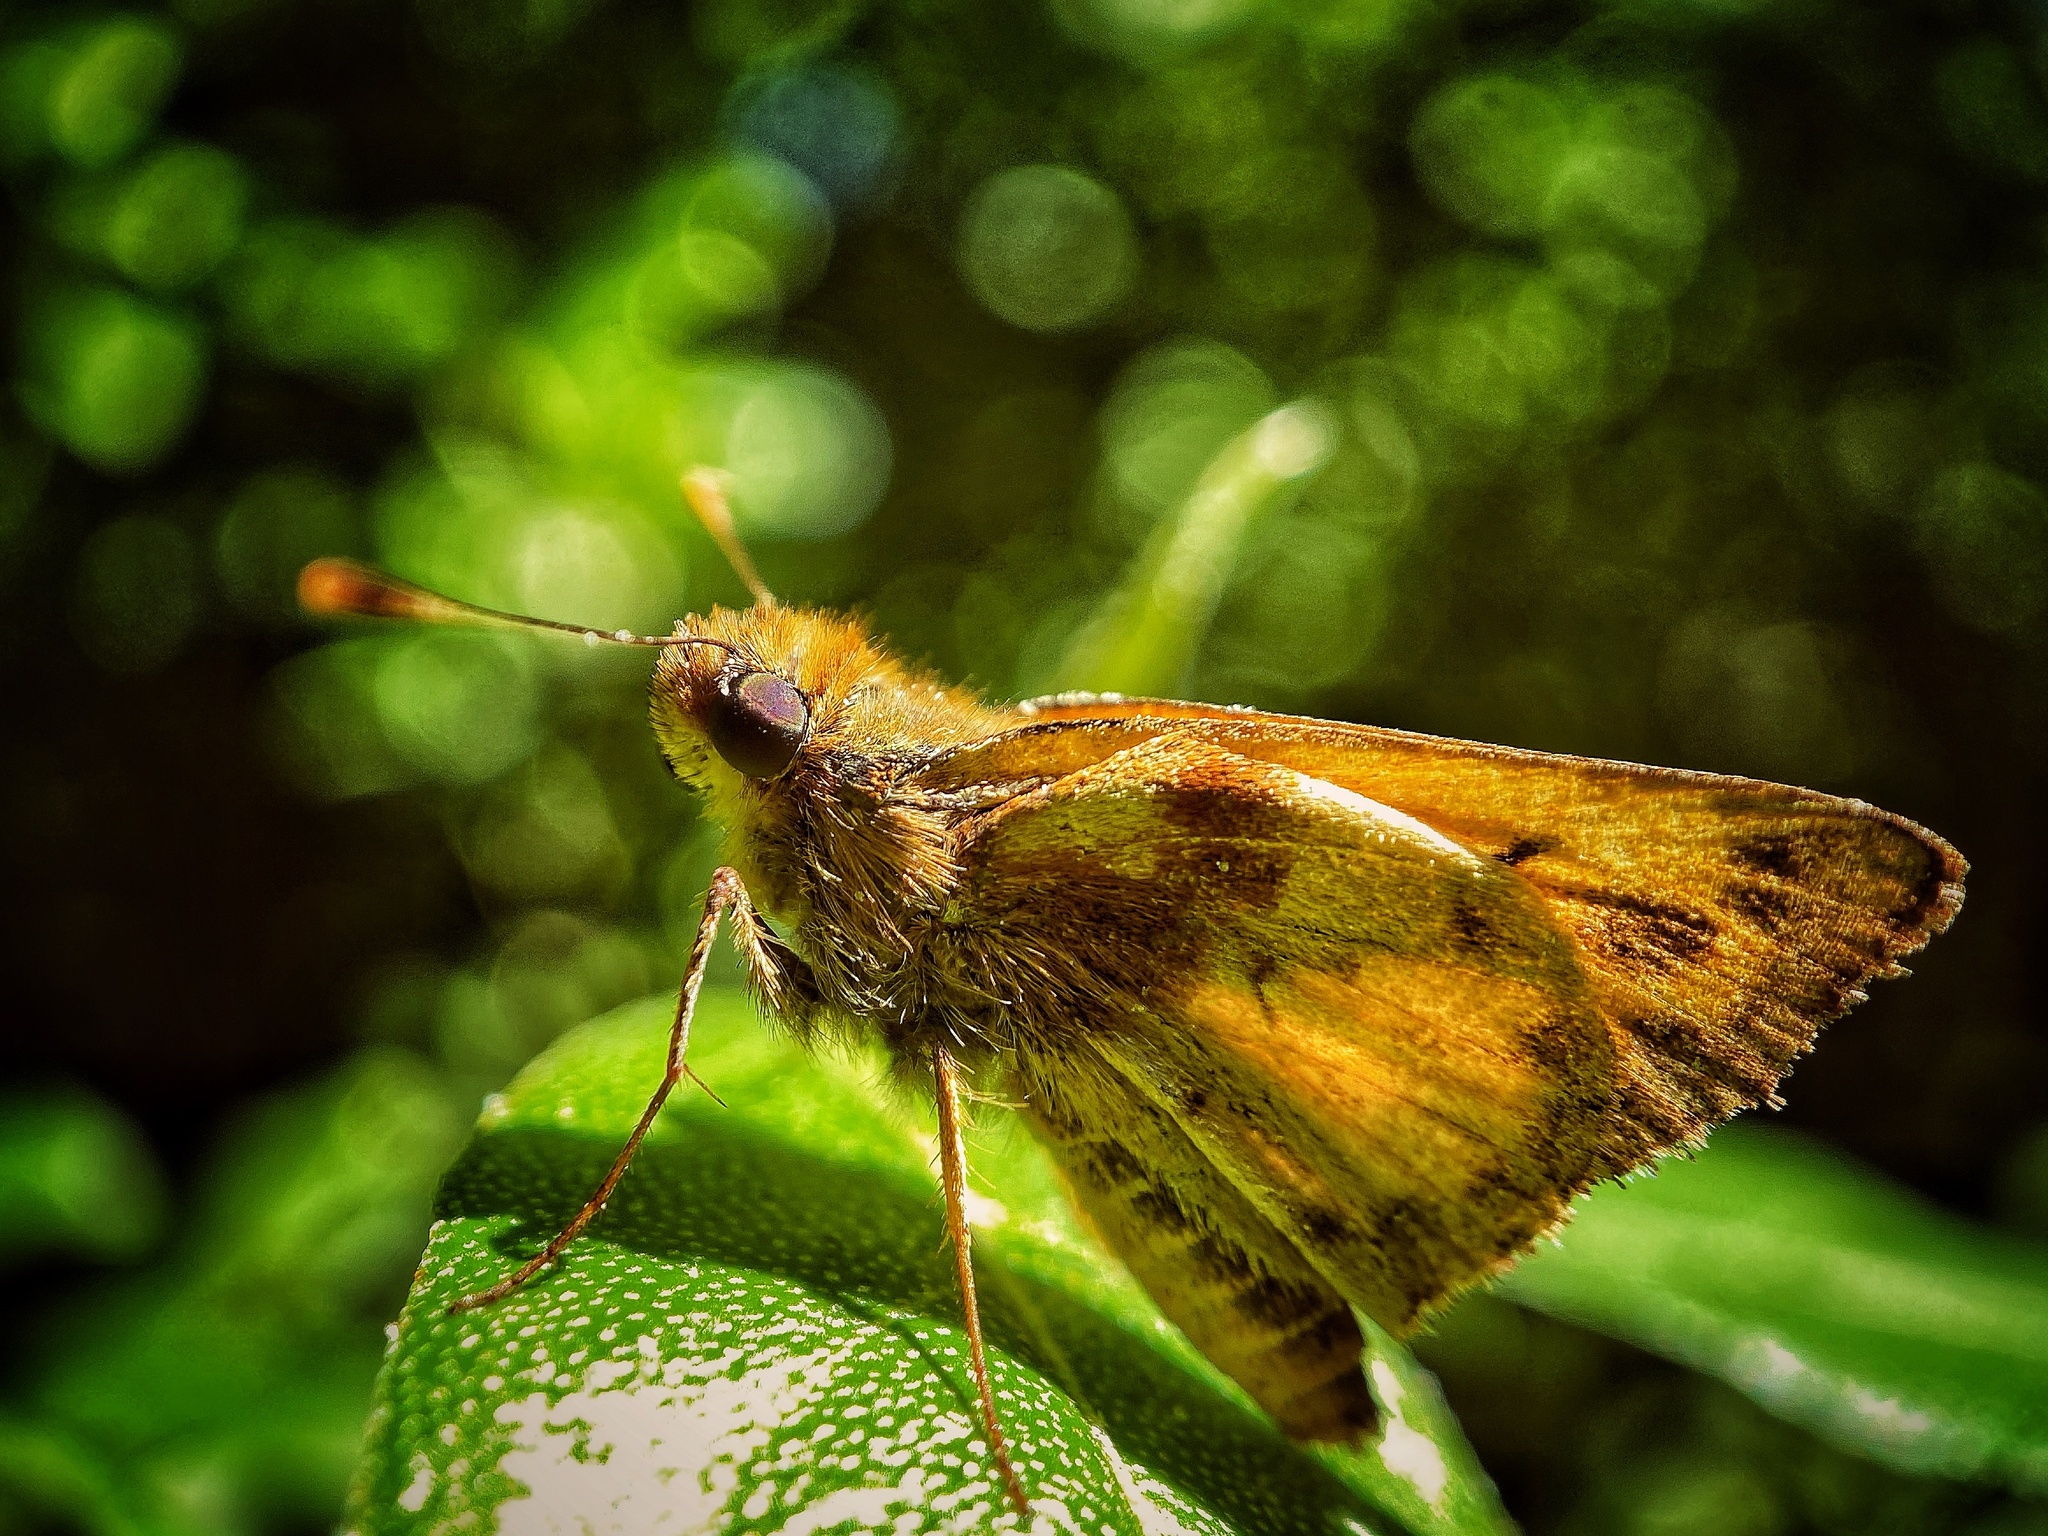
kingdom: Animalia
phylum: Arthropoda
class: Insecta
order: Lepidoptera
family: Hesperiidae
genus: Lon
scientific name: Lon zabulon
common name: Zabulon skipper
